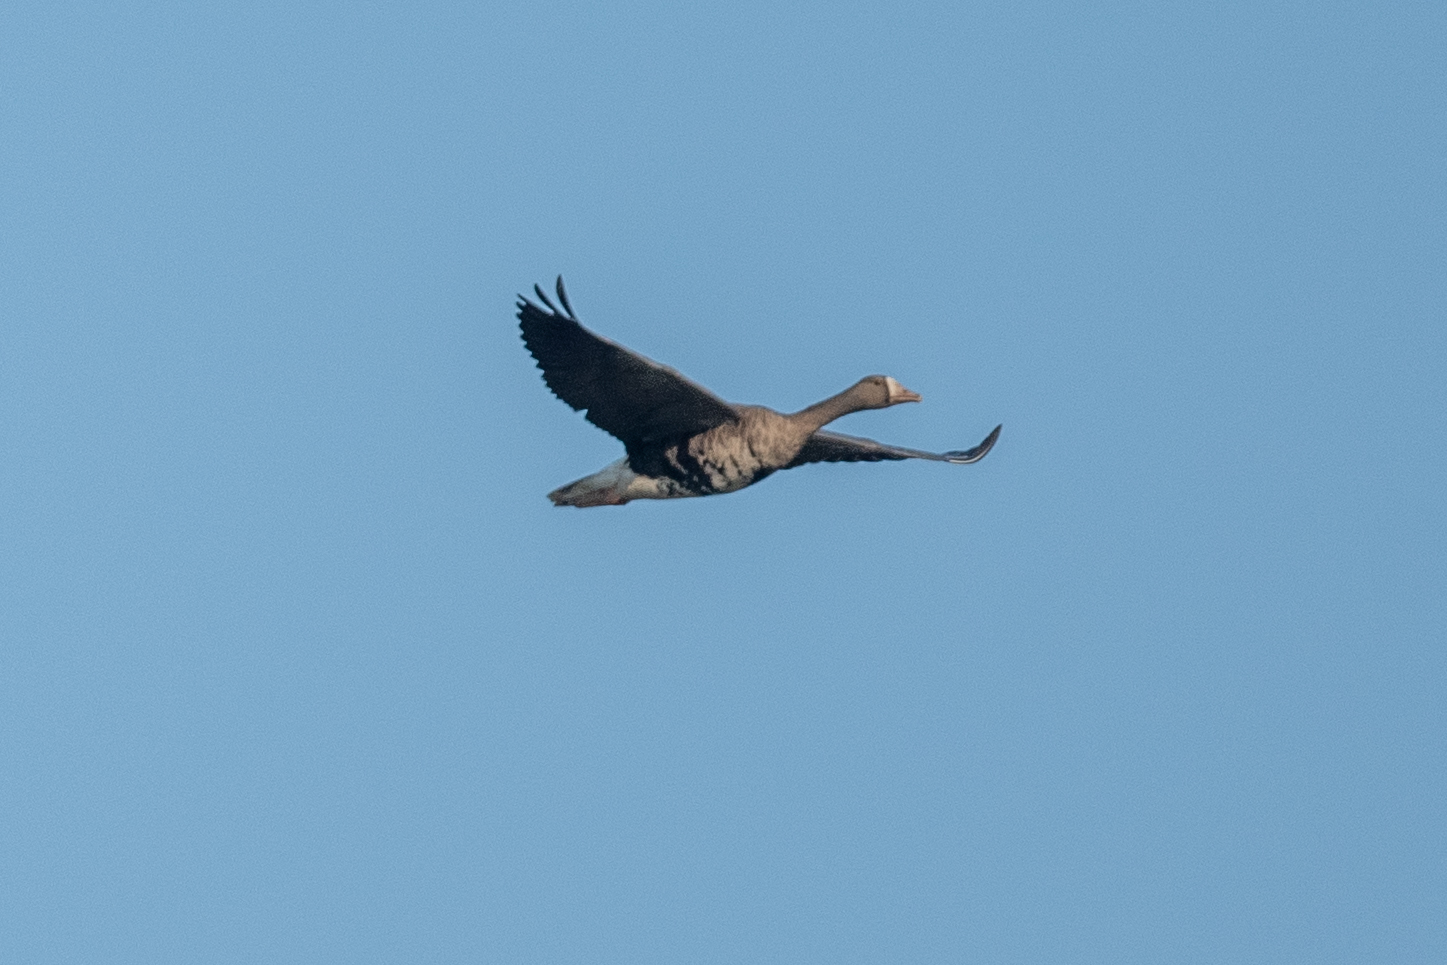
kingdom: Animalia
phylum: Chordata
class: Aves
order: Anseriformes
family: Anatidae
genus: Anser
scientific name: Anser albifrons
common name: Greater white-fronted goose
